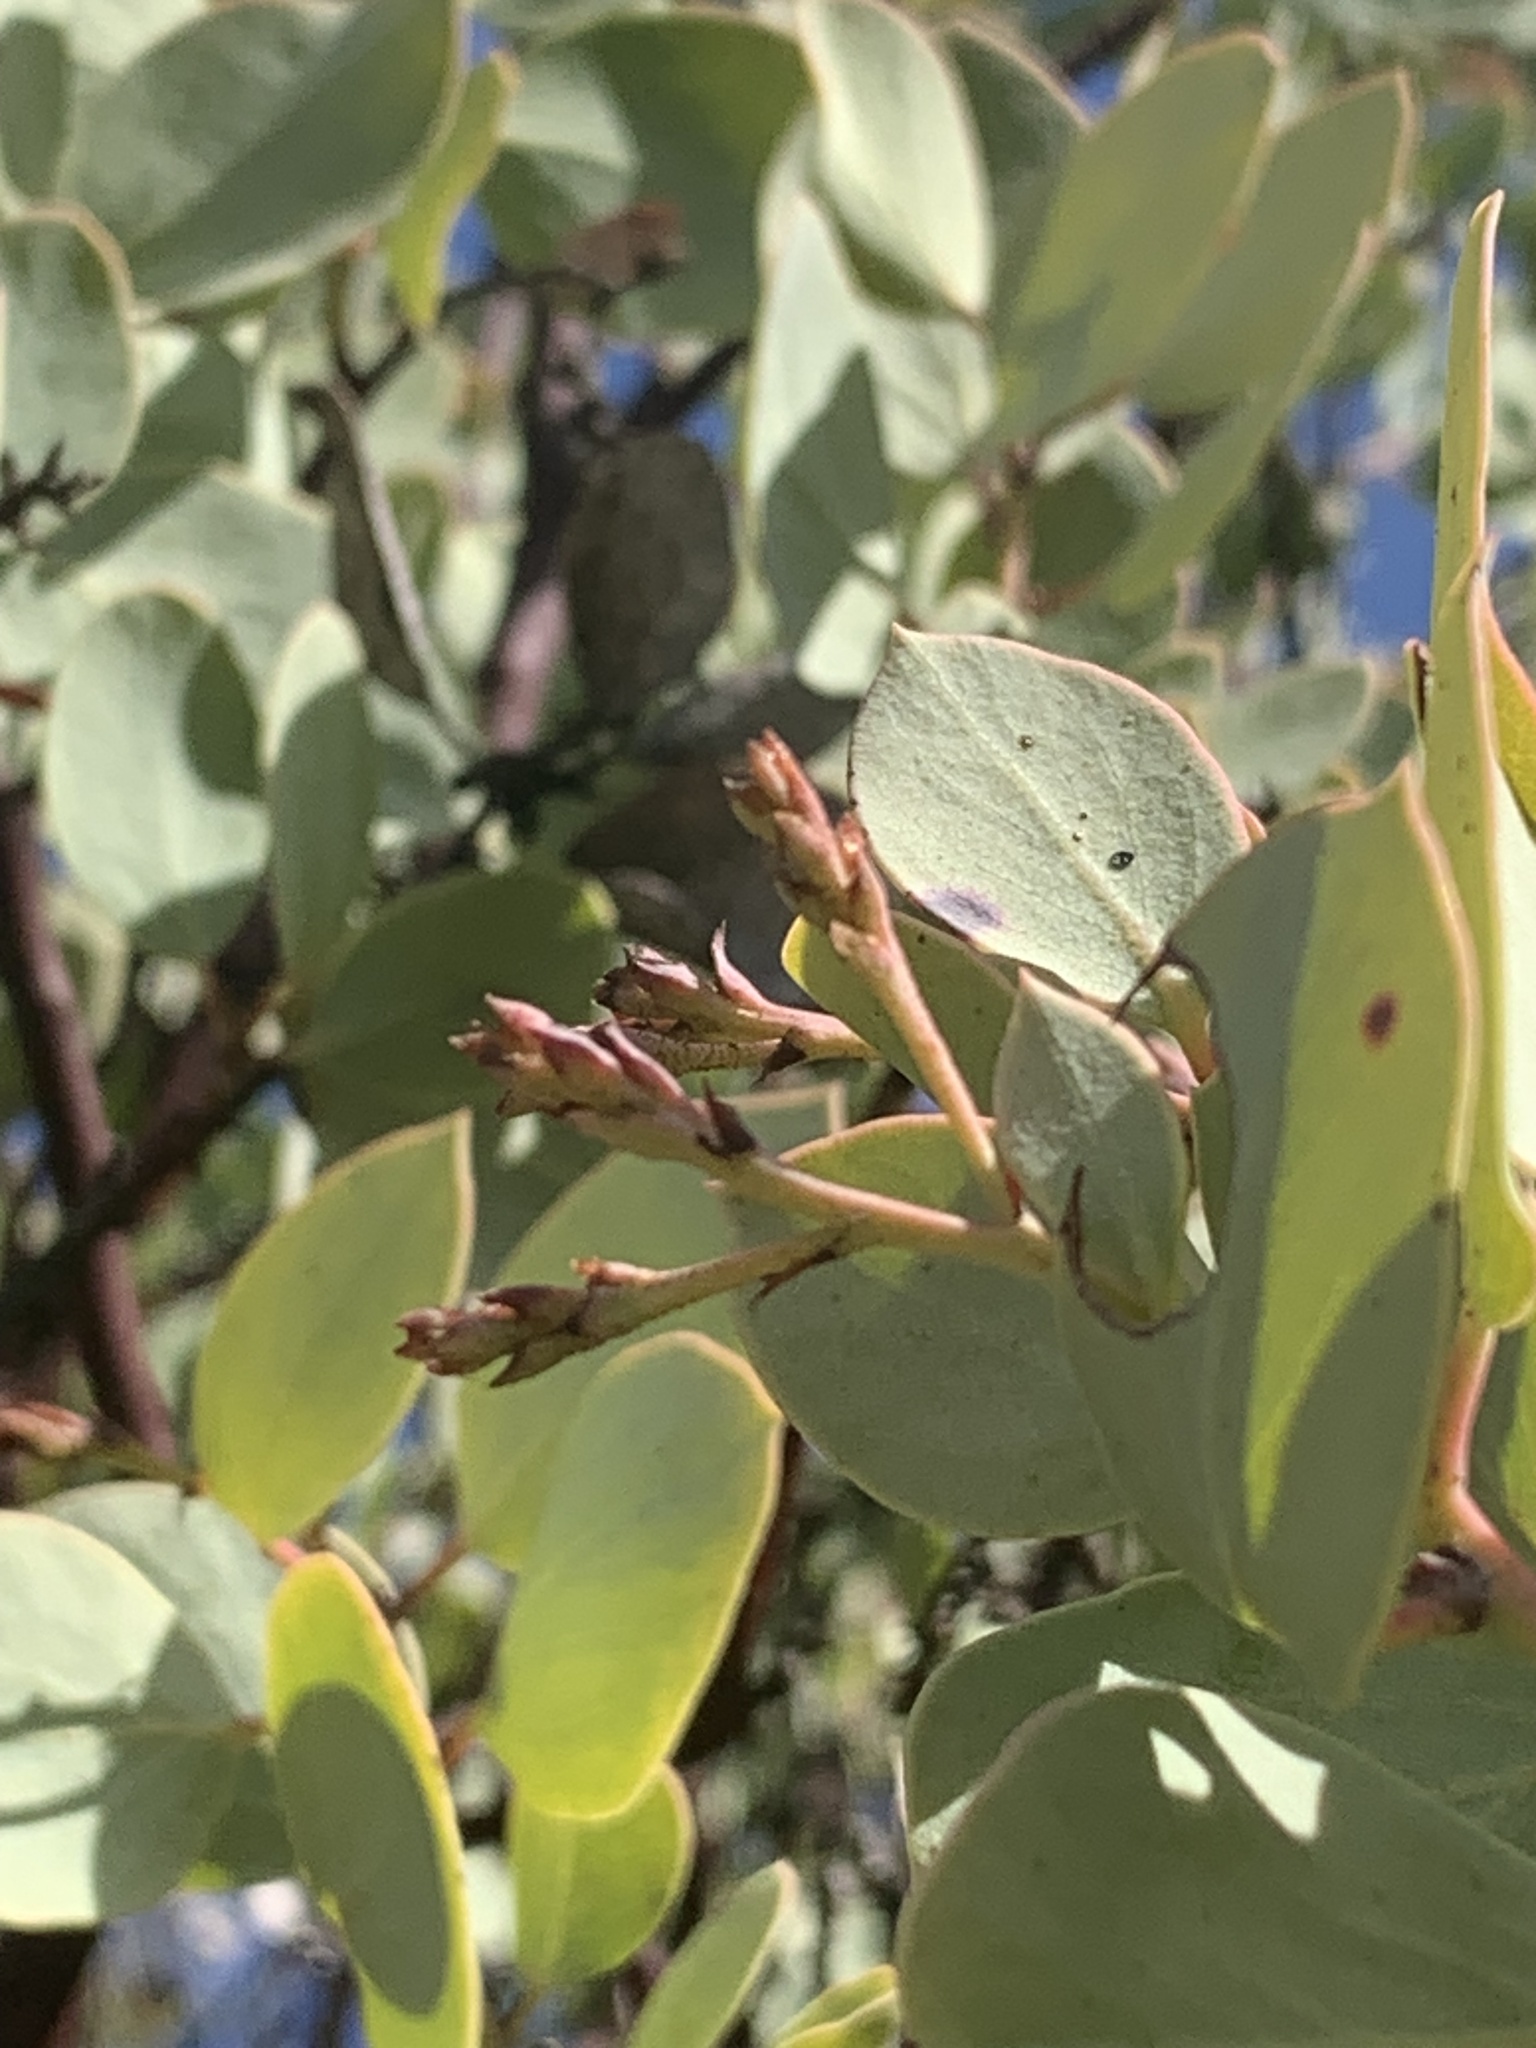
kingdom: Plantae
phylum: Tracheophyta
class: Magnoliopsida
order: Ericales
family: Ericaceae
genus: Arctostaphylos
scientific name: Arctostaphylos viscida
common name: White-leaf manzanita
